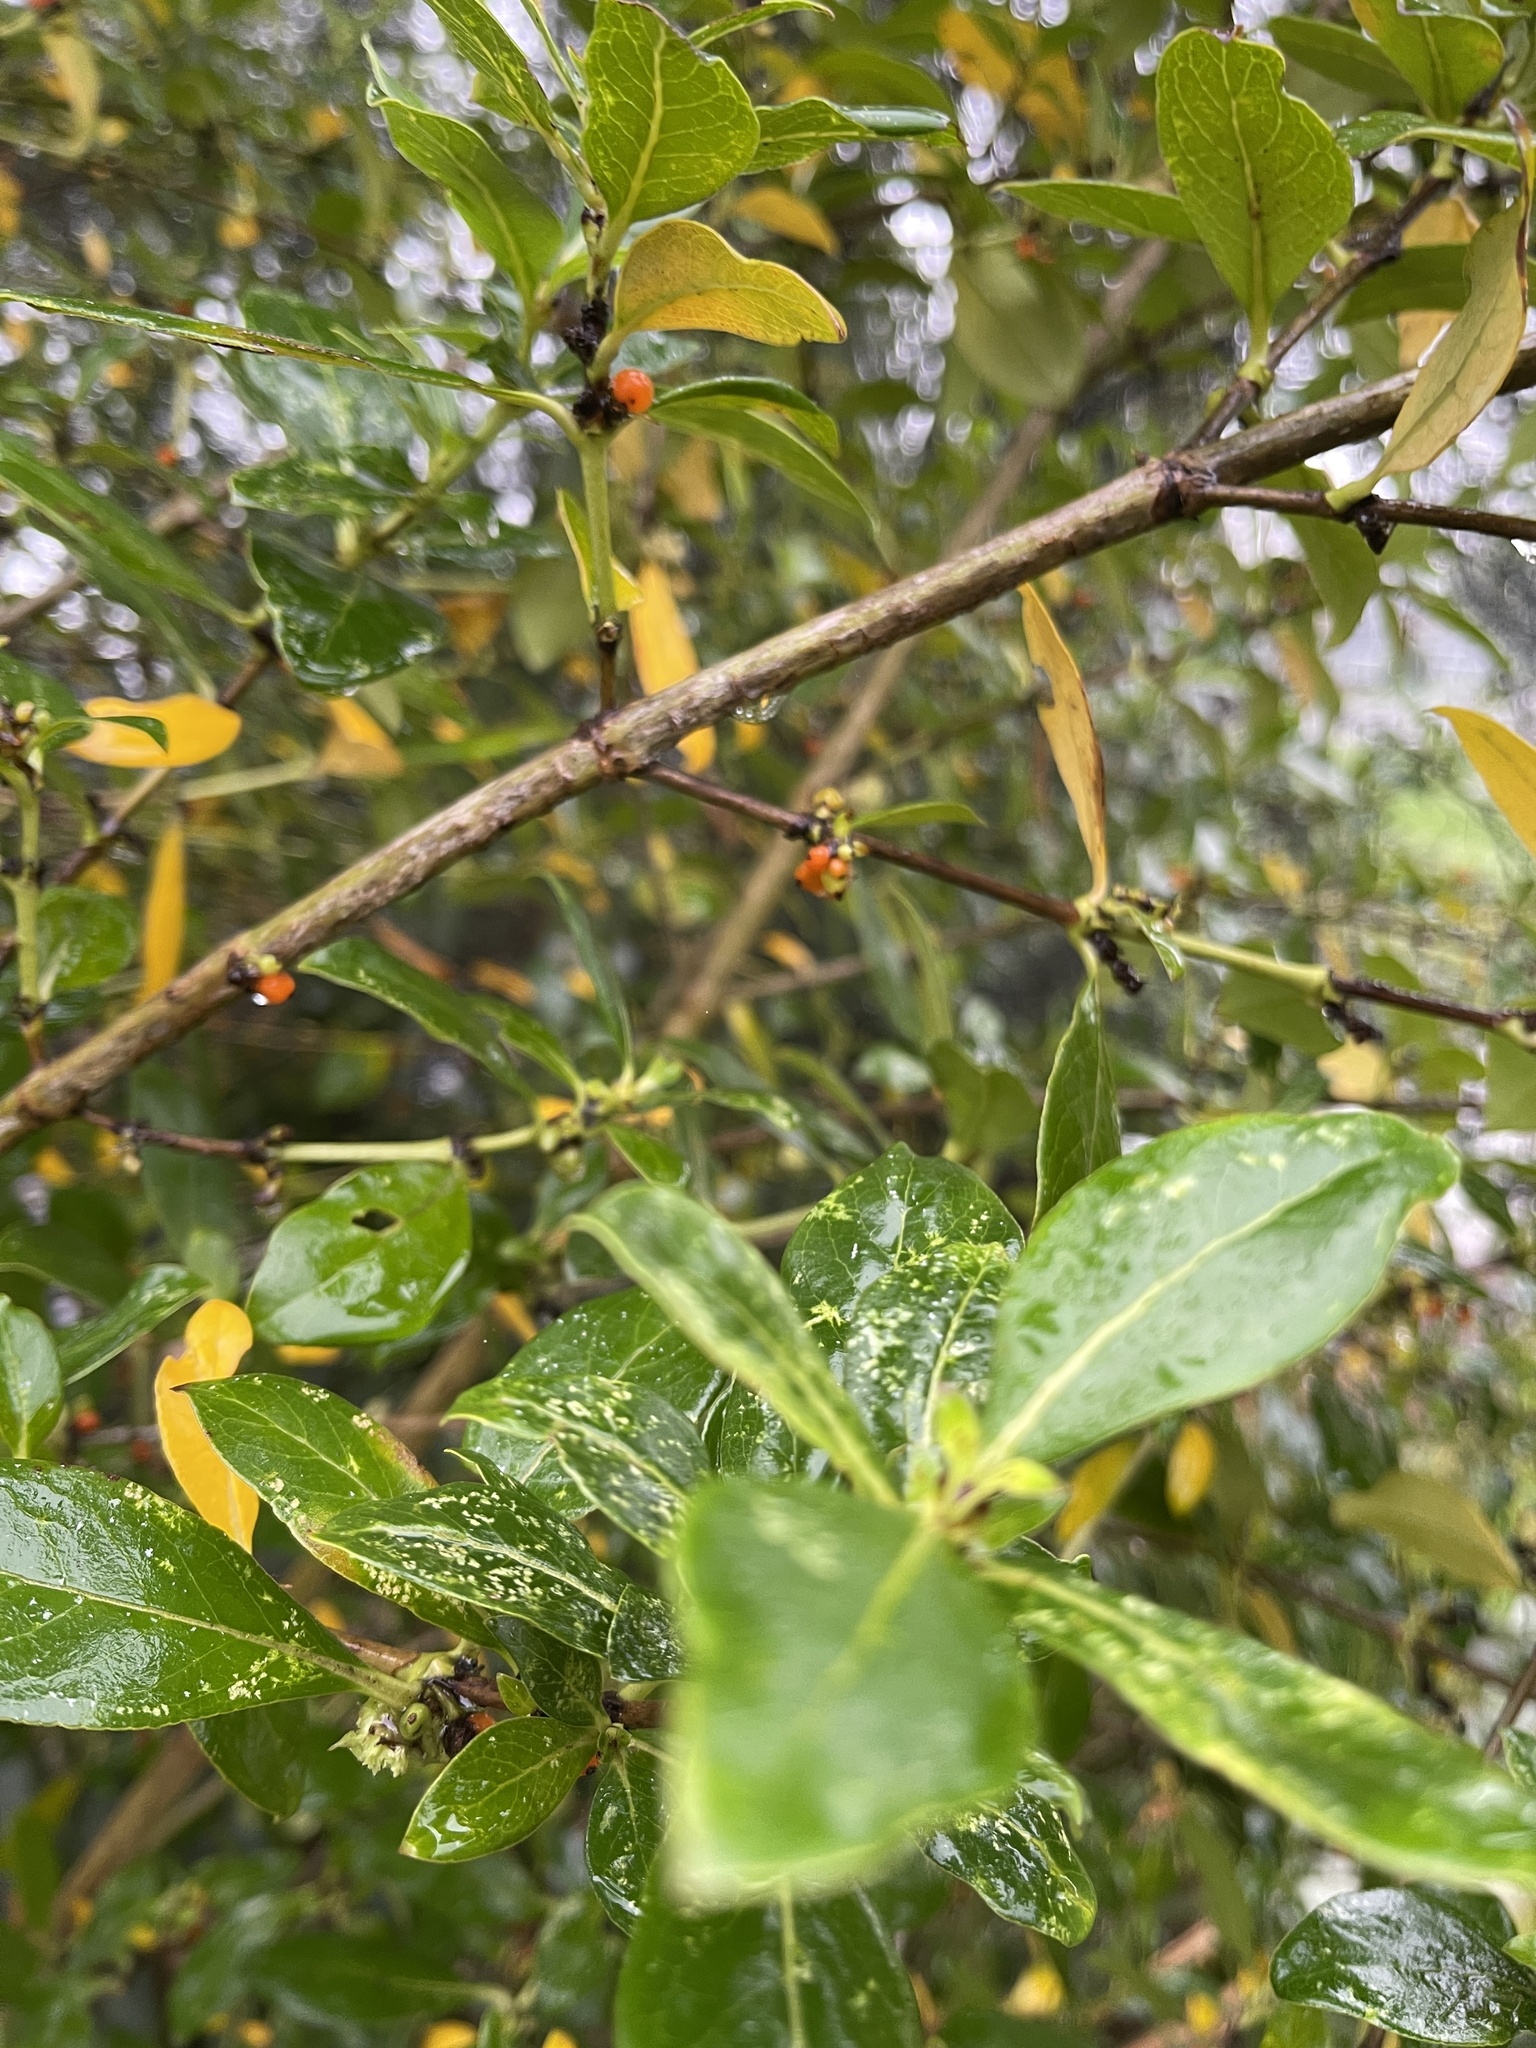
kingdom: Plantae
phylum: Tracheophyta
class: Magnoliopsida
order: Gentianales
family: Rubiaceae
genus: Coprosma
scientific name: Coprosma robusta
